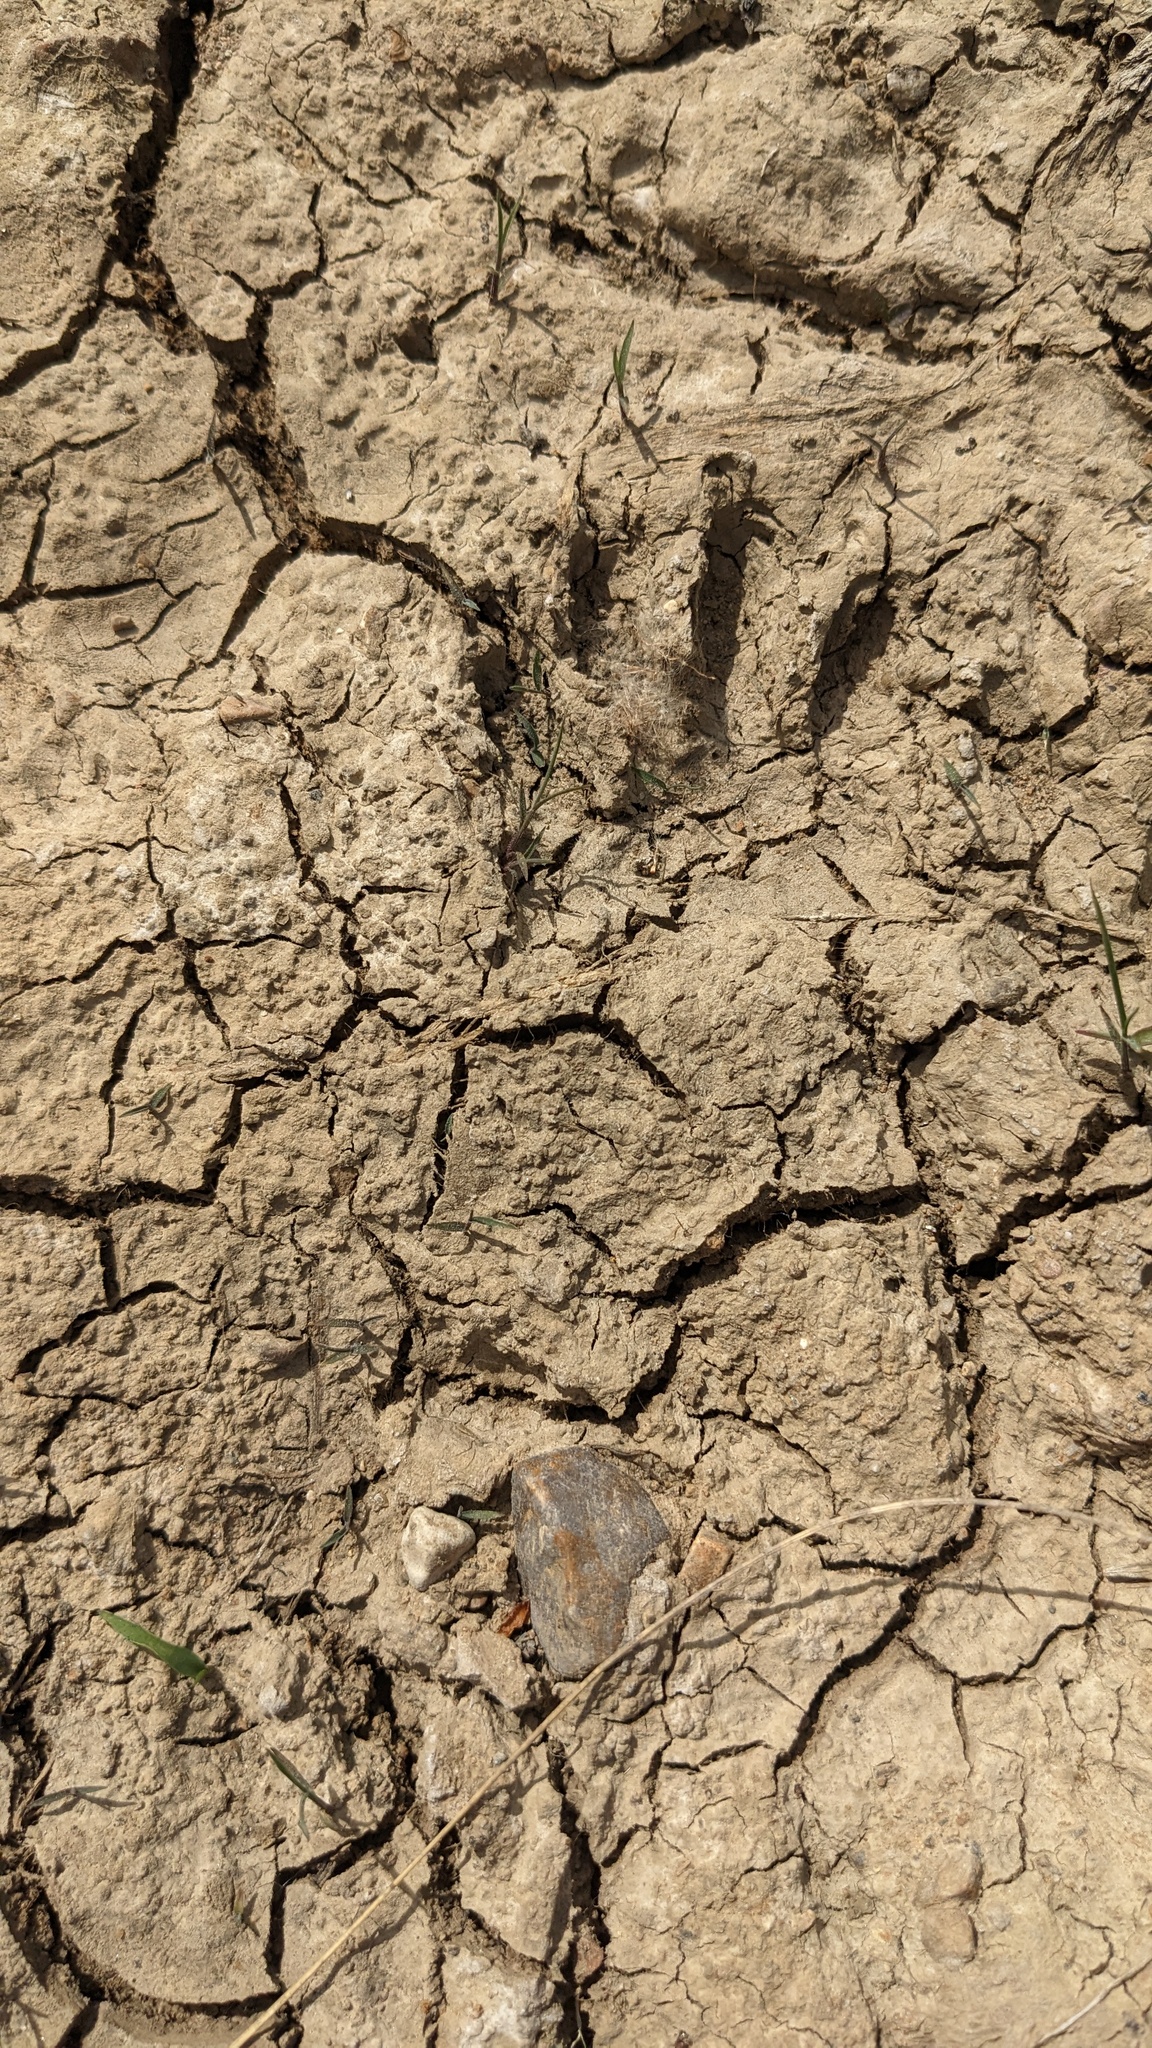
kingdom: Animalia
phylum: Chordata
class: Mammalia
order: Carnivora
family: Procyonidae
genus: Procyon
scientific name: Procyon lotor
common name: Raccoon
